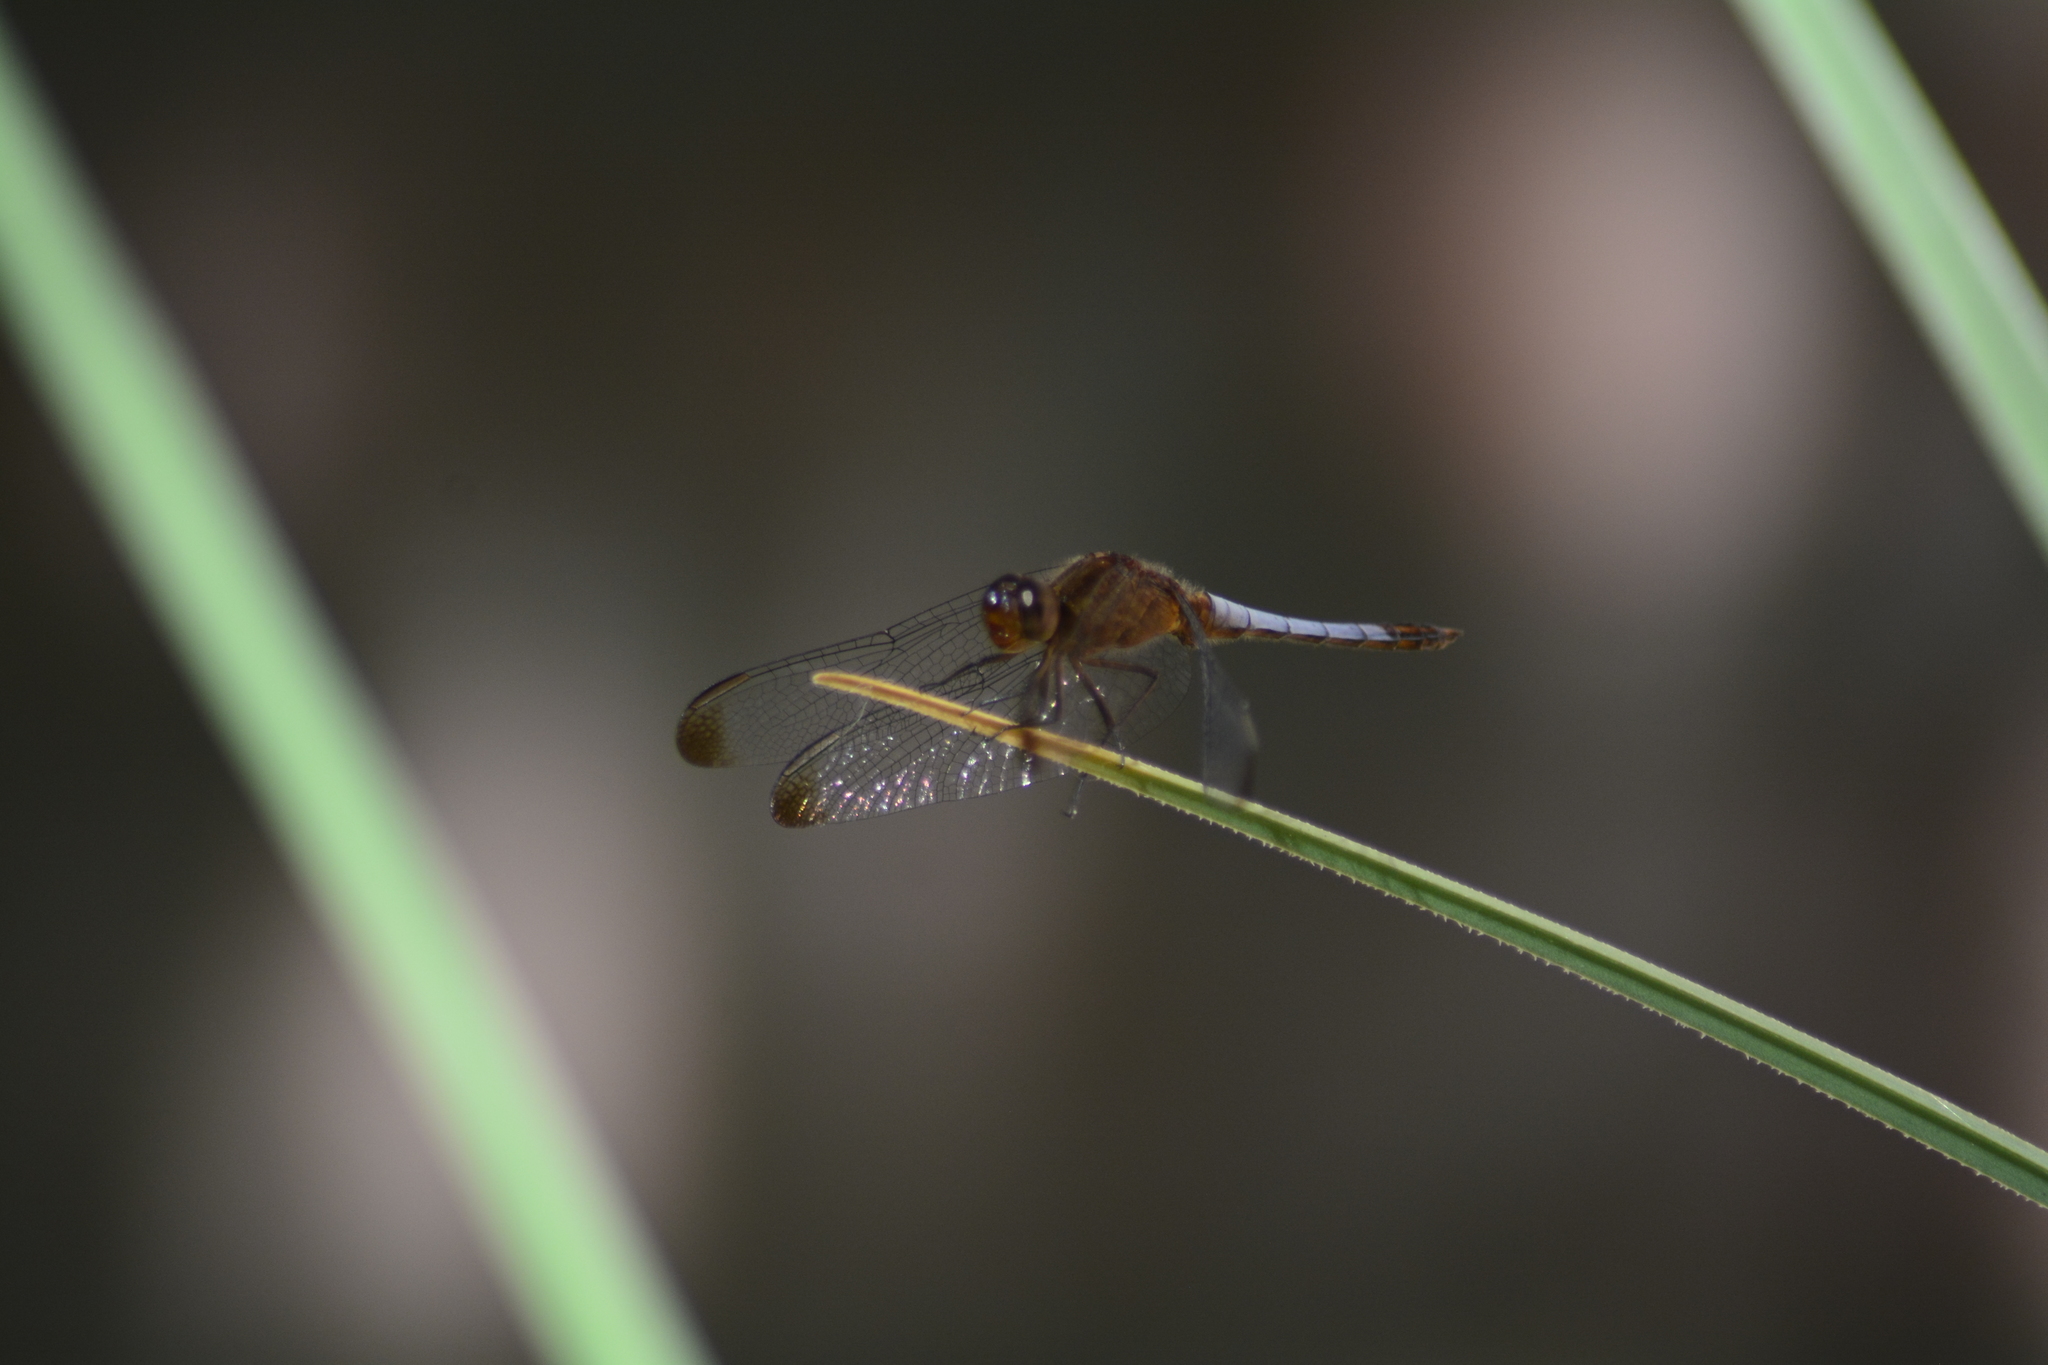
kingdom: Animalia
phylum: Arthropoda
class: Insecta
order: Odonata
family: Libellulidae
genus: Erythrodiplax
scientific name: Erythrodiplax atroterminata
